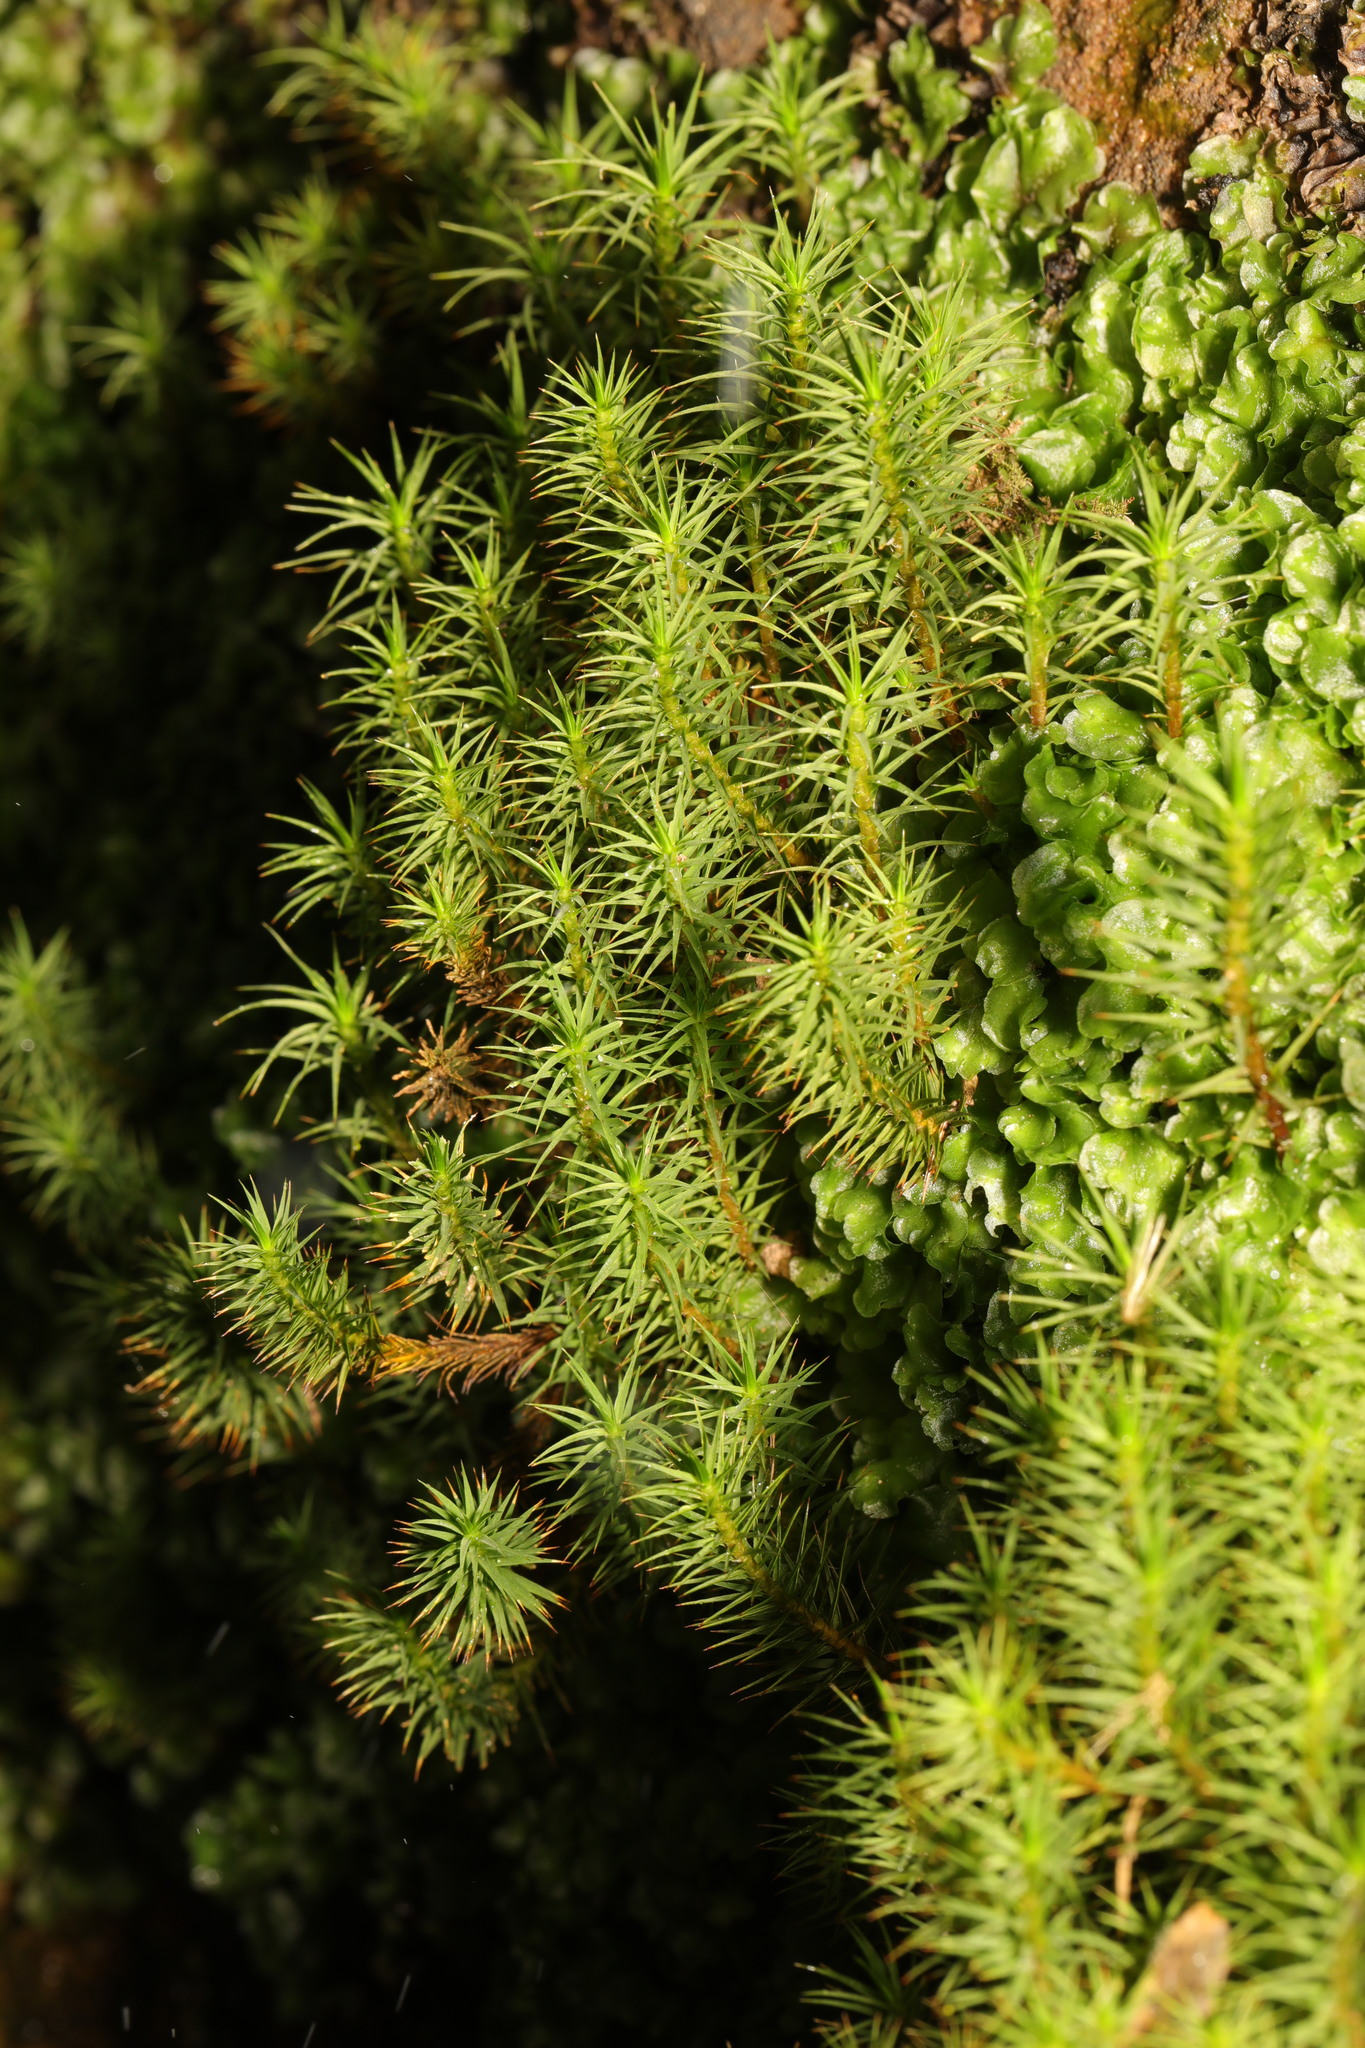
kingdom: Plantae
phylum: Bryophyta
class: Polytrichopsida
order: Polytrichales
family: Polytrichaceae
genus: Polytrichum
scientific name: Polytrichum commune
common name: Common haircap
